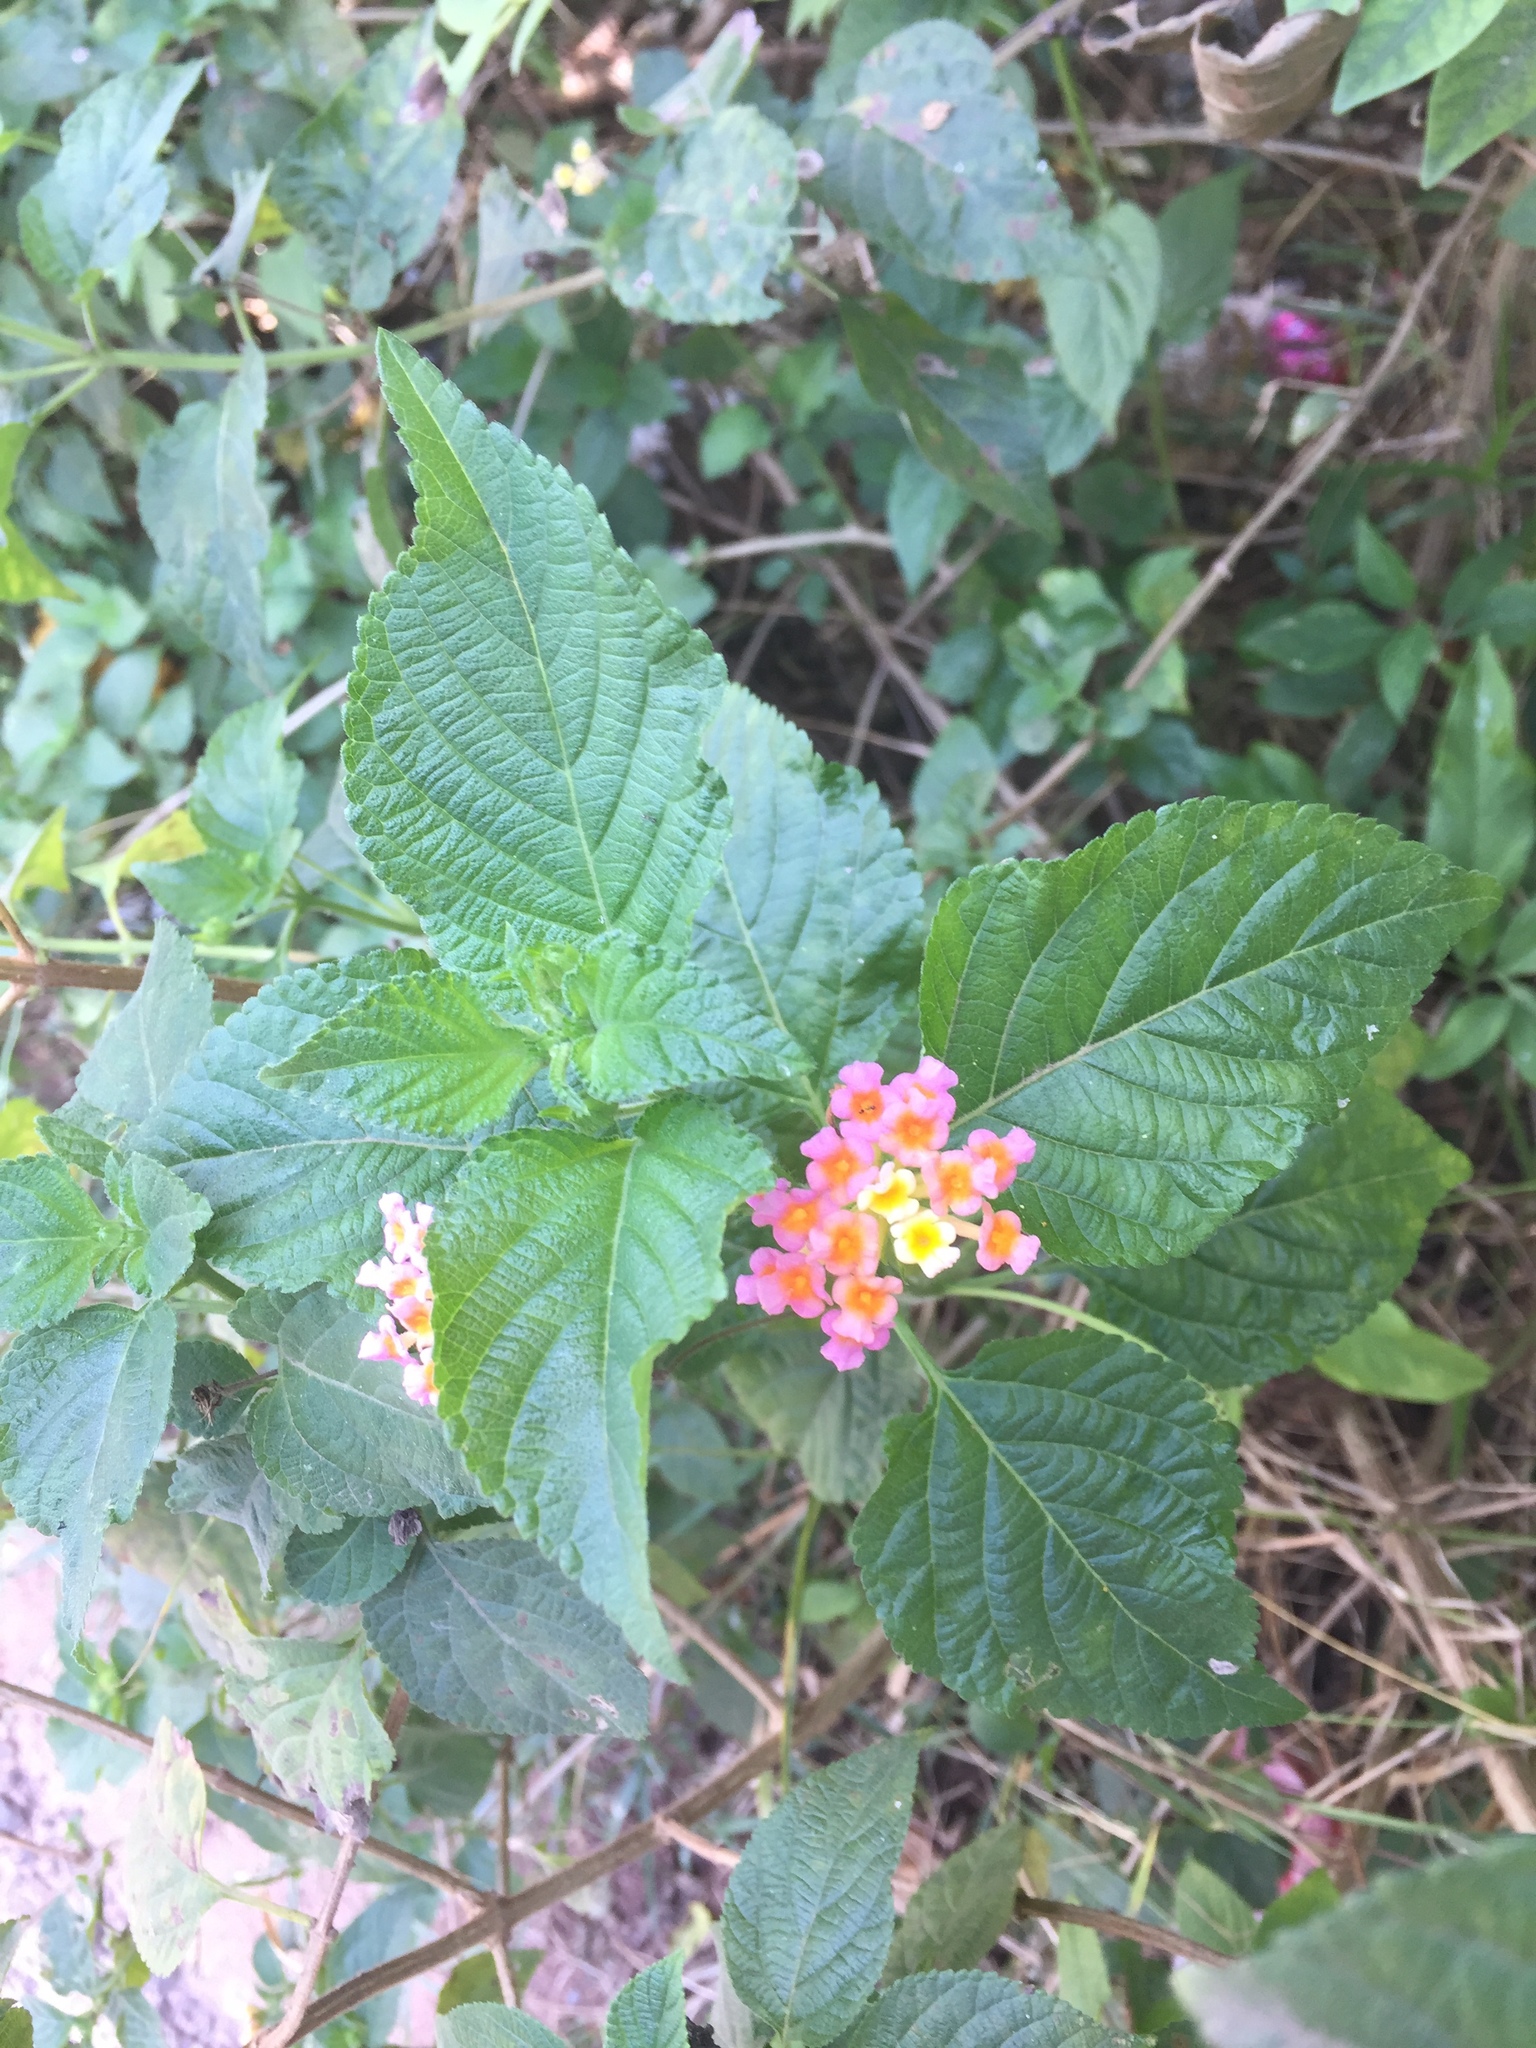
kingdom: Plantae
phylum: Tracheophyta
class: Magnoliopsida
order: Lamiales
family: Verbenaceae
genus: Lantana
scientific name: Lantana camara
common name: Lantana
